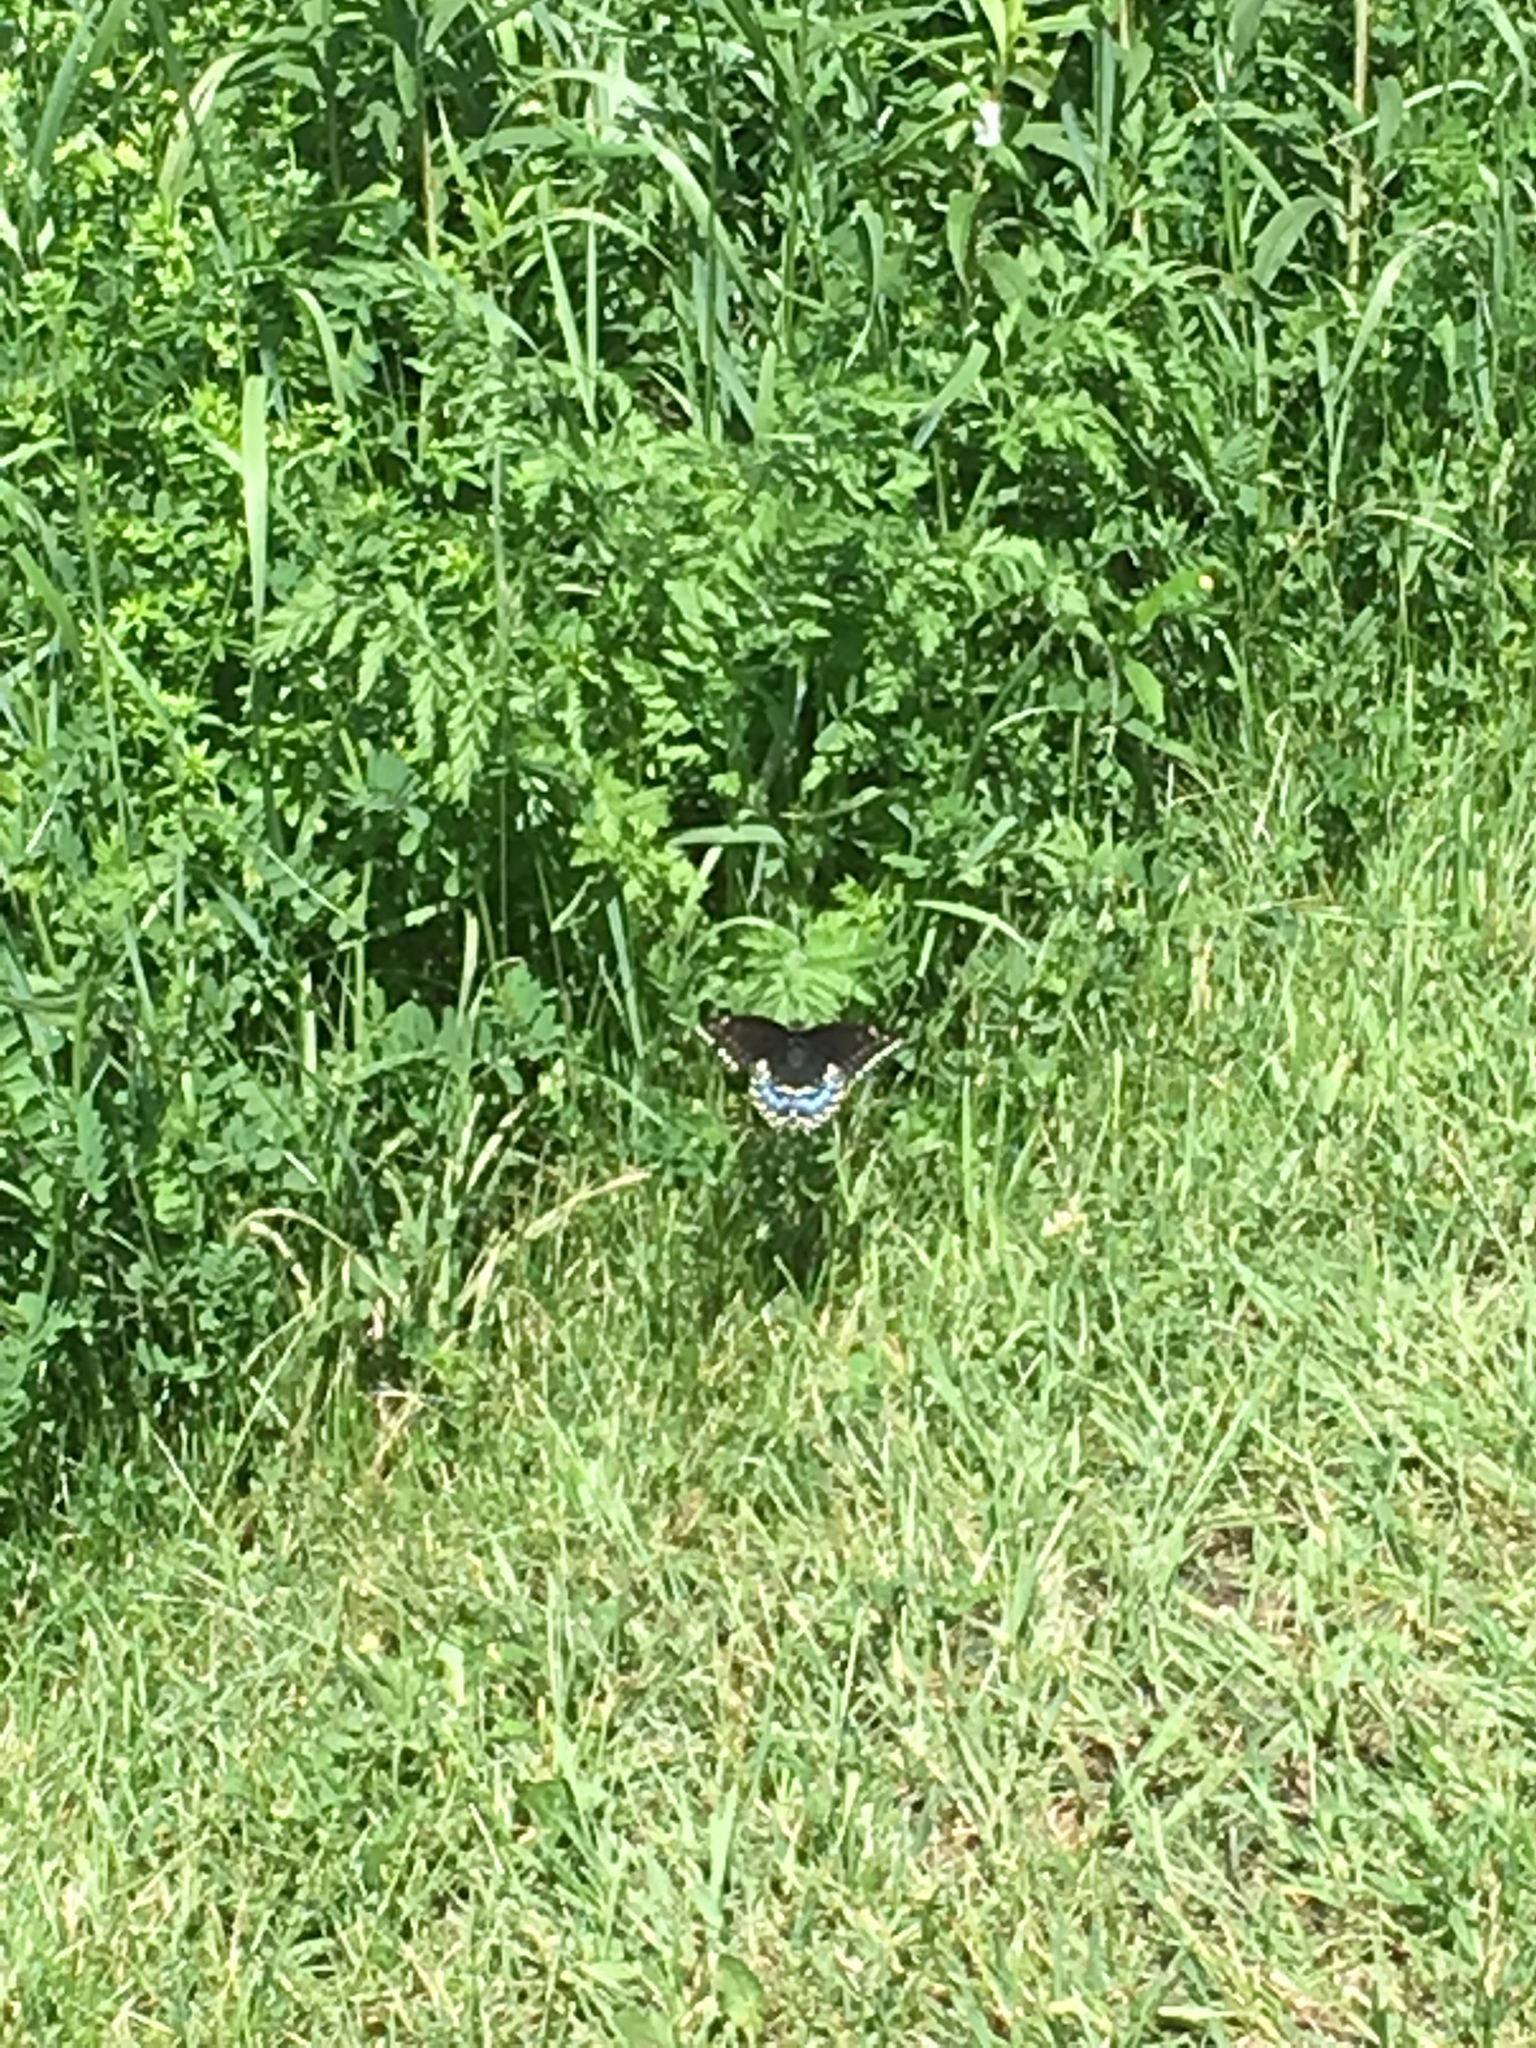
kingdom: Animalia
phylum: Arthropoda
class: Insecta
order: Lepidoptera
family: Papilionidae
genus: Papilio
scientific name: Papilio polyxenes
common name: Black swallowtail
